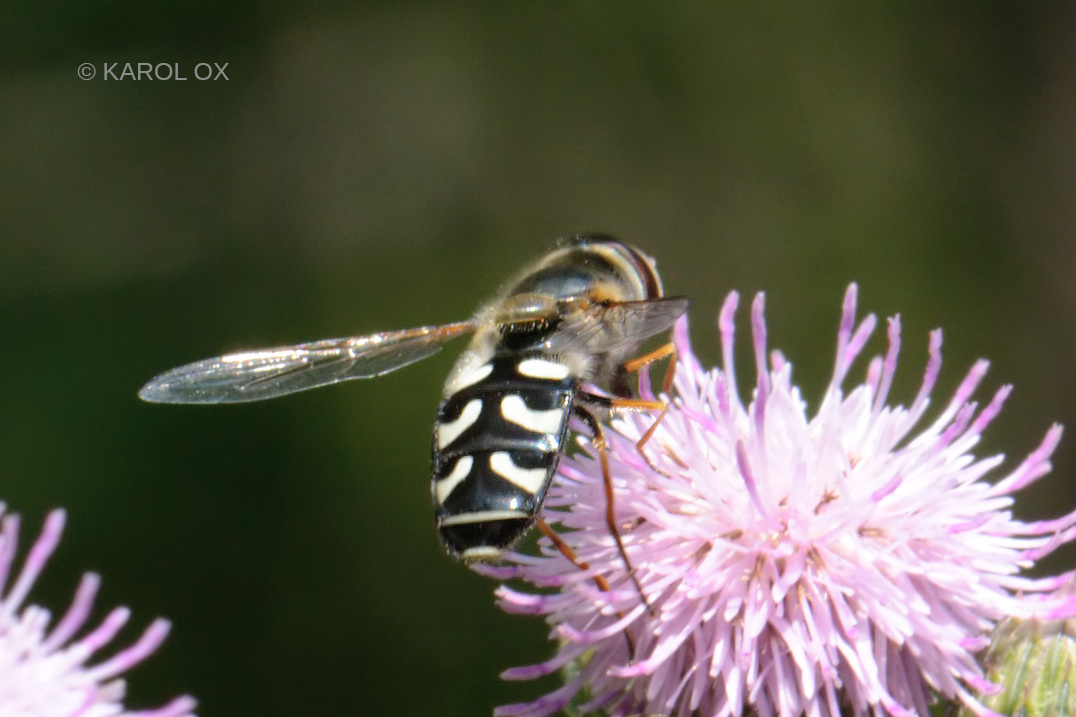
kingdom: Animalia
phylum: Arthropoda
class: Insecta
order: Diptera
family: Syrphidae
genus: Scaeva
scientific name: Scaeva pyrastri
